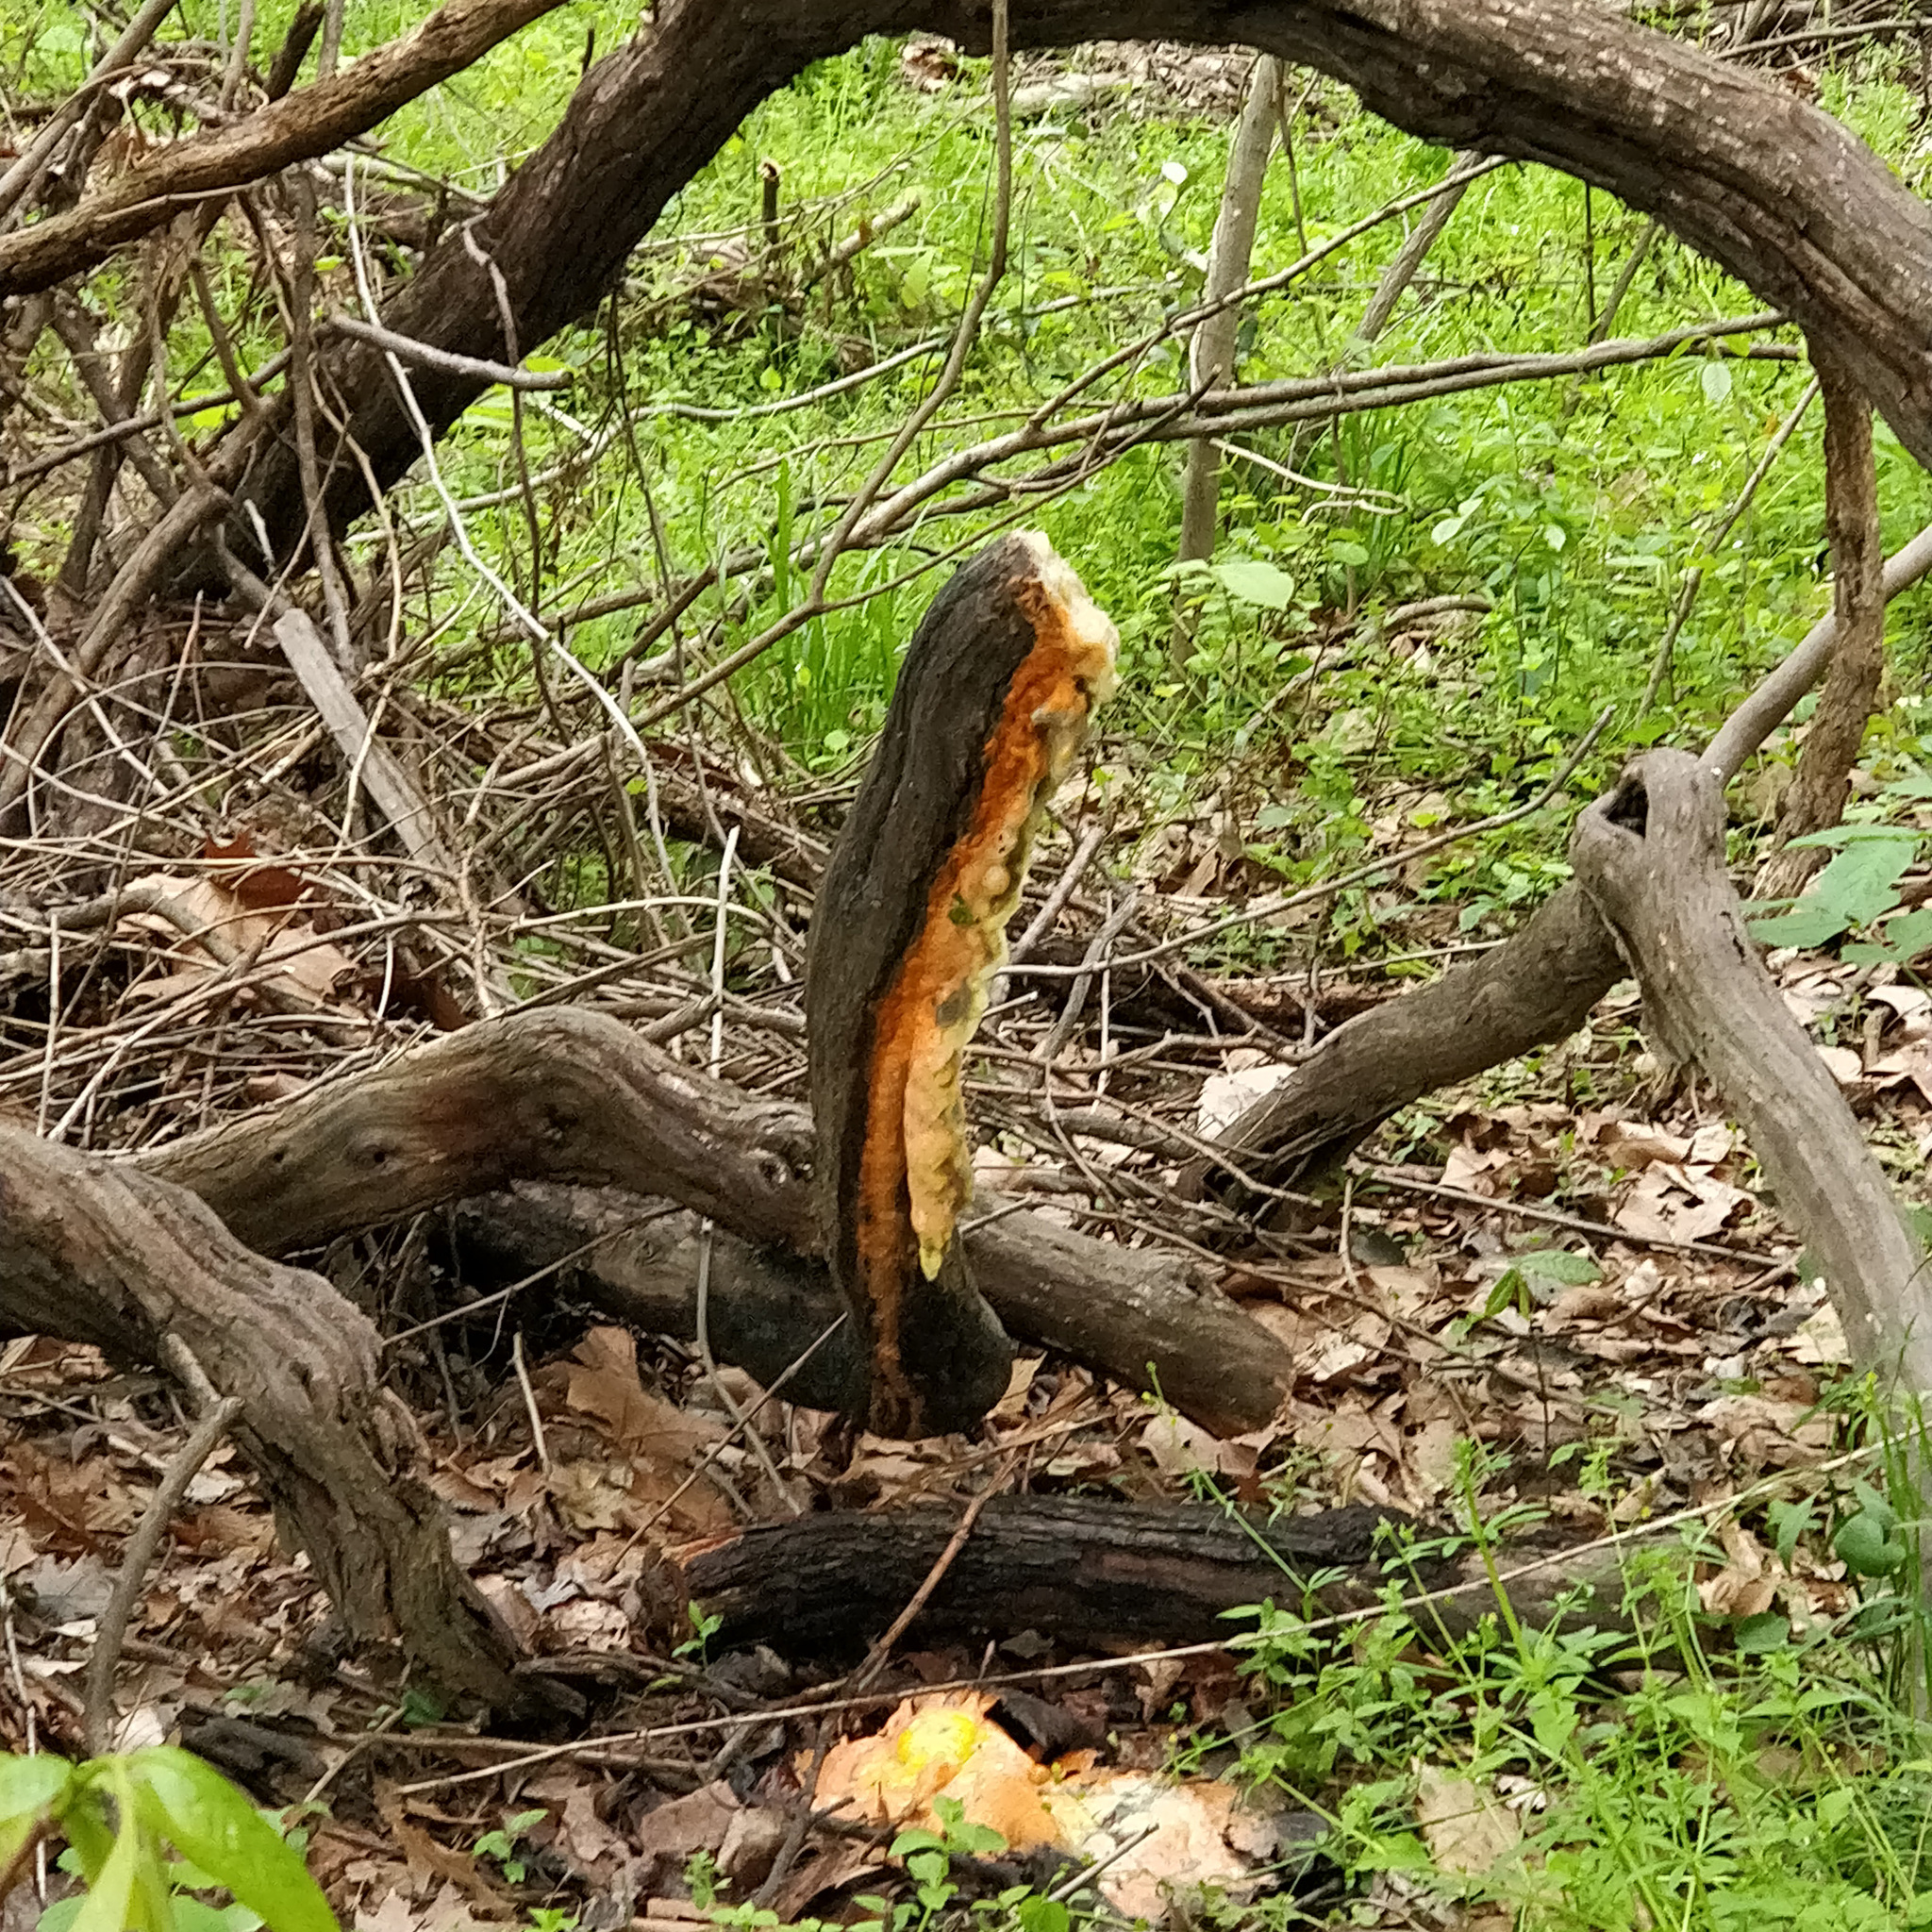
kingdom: Fungi
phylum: Ascomycota
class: Sordariomycetes
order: Hypocreales
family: Nectriaceae
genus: Fusicolla
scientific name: Fusicolla merismoides
